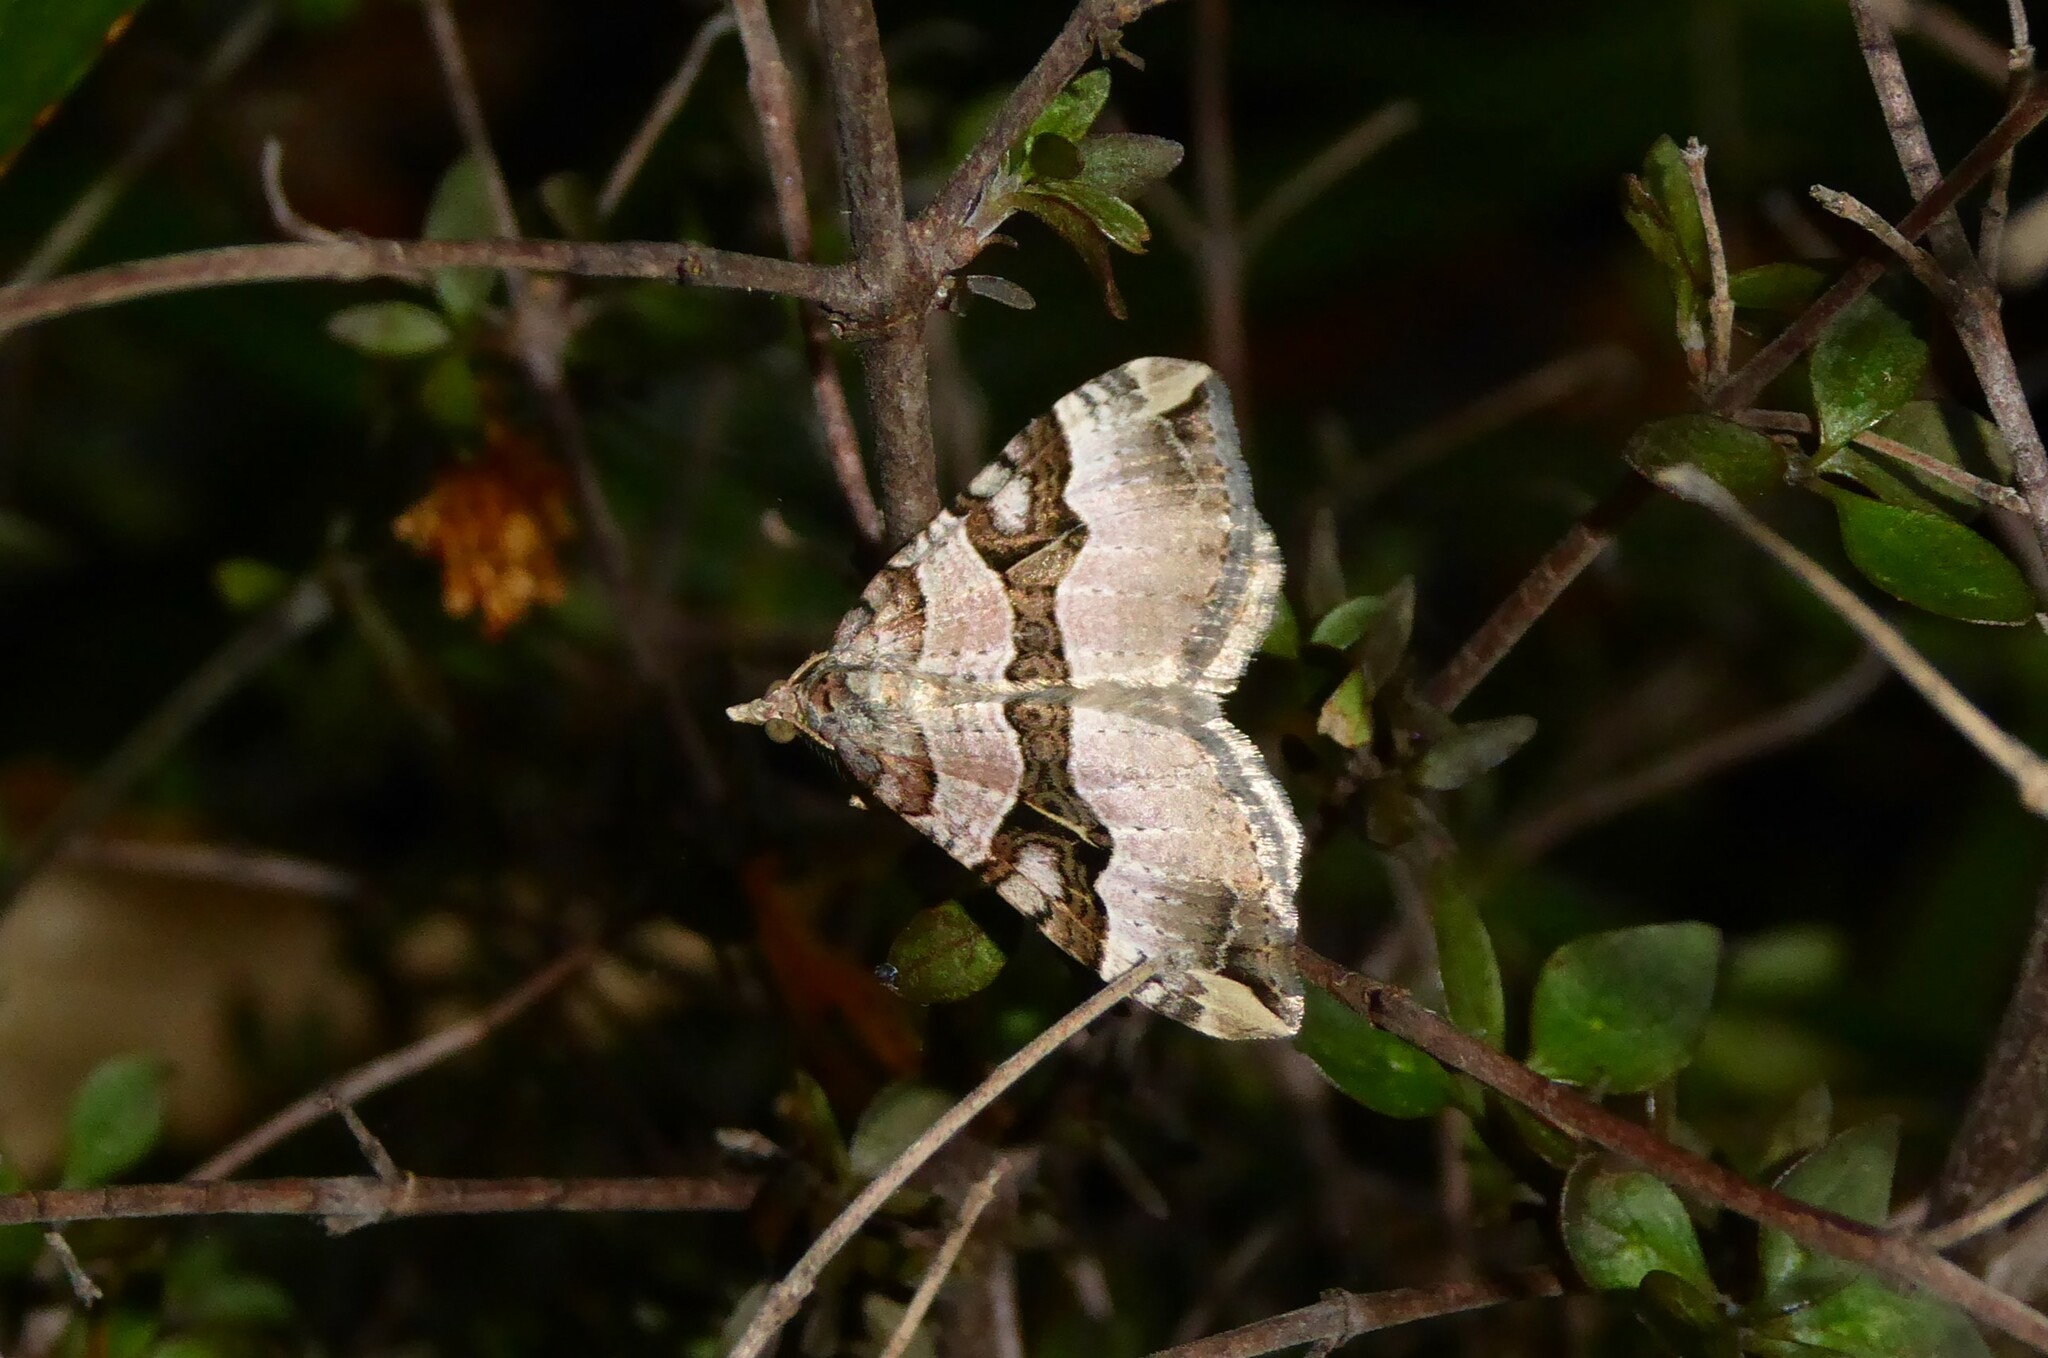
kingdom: Animalia
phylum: Arthropoda
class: Insecta
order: Lepidoptera
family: Geometridae
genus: Xanthorhoe
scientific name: Xanthorhoe semifissata
